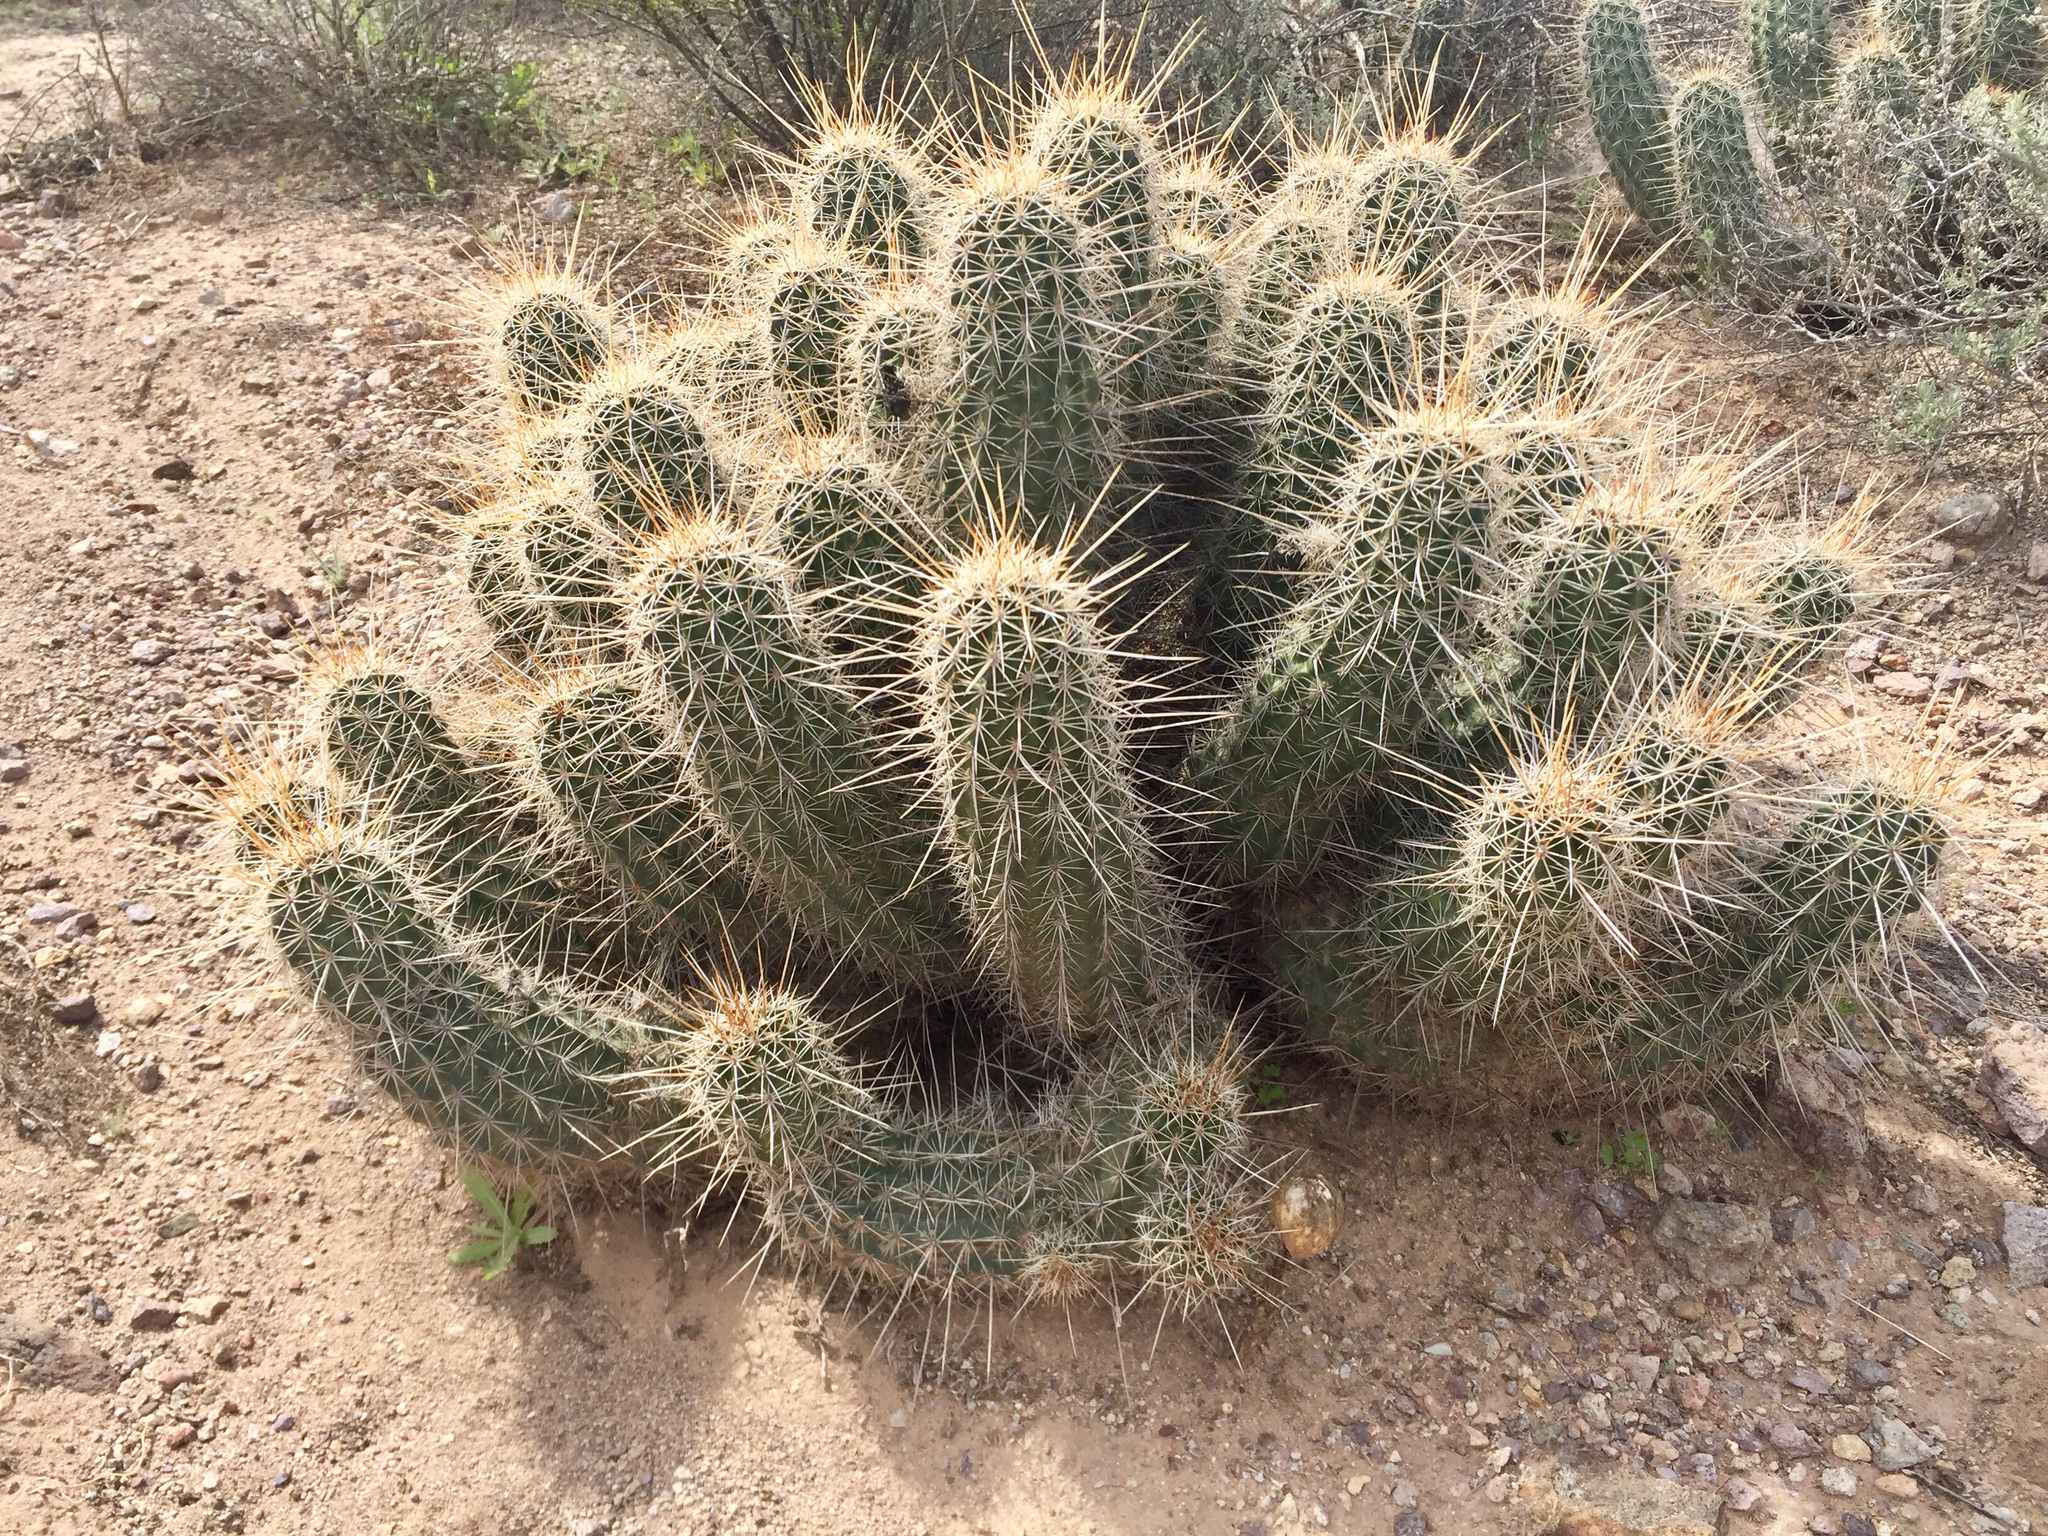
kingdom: Plantae
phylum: Tracheophyta
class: Magnoliopsida
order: Caryophyllales
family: Cactaceae
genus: Echinocereus
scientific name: Echinocereus fasciculatus
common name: Bundle hedgehog
